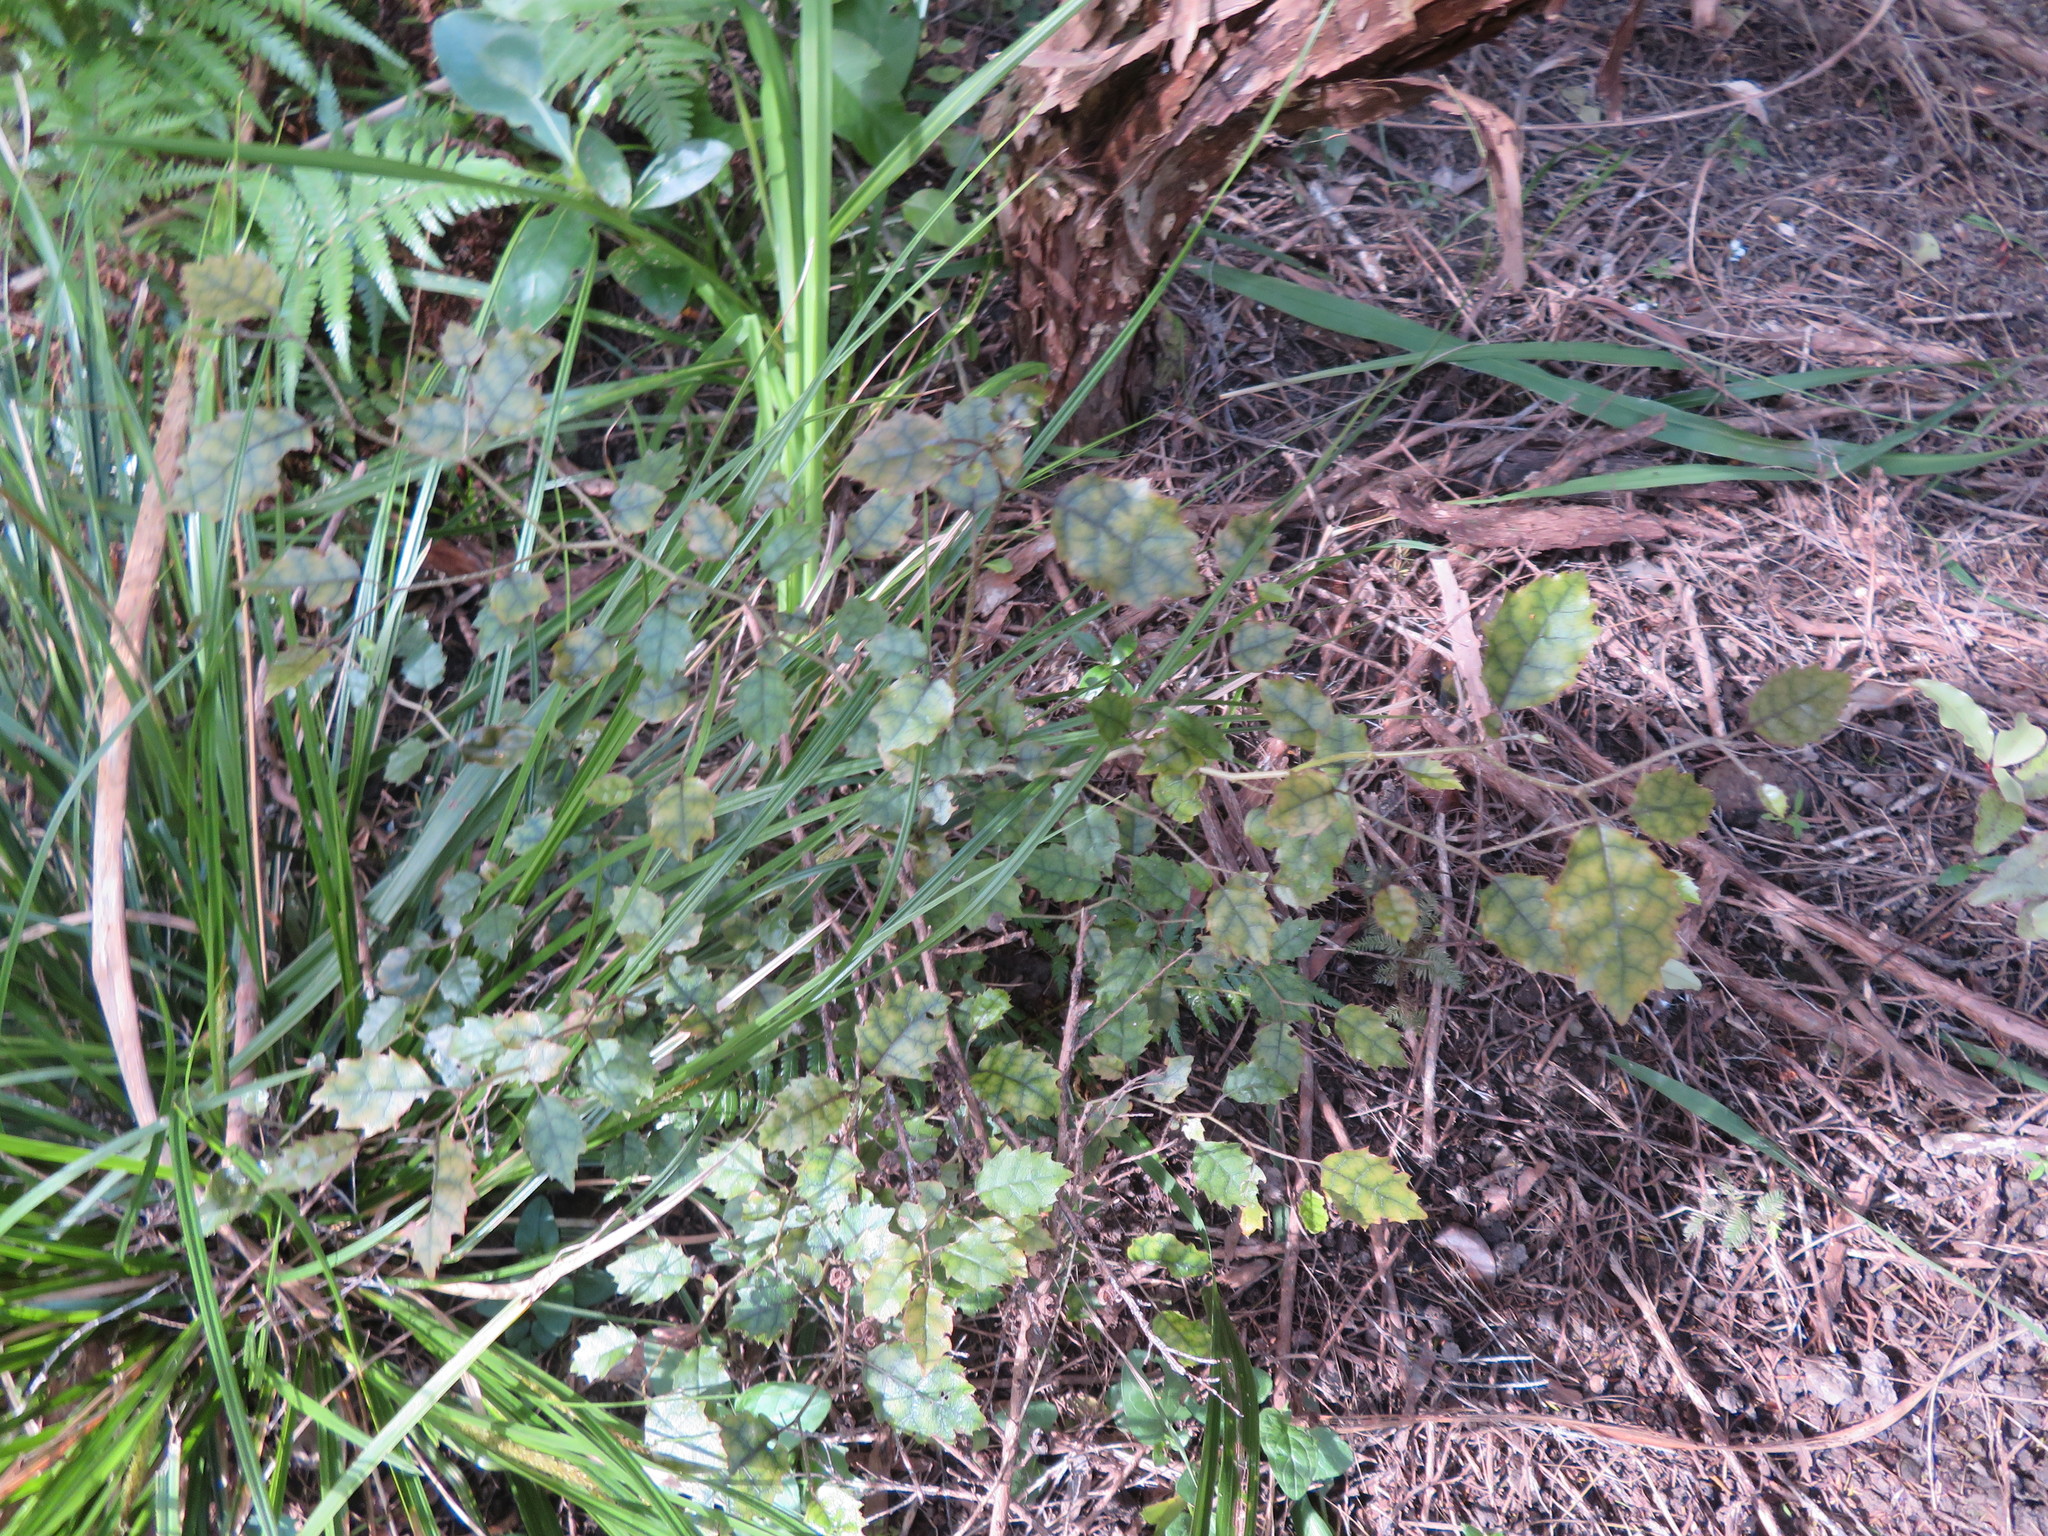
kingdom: Plantae
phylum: Tracheophyta
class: Magnoliopsida
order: Asterales
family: Rousseaceae
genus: Carpodetus
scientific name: Carpodetus serratus
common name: White mapau
